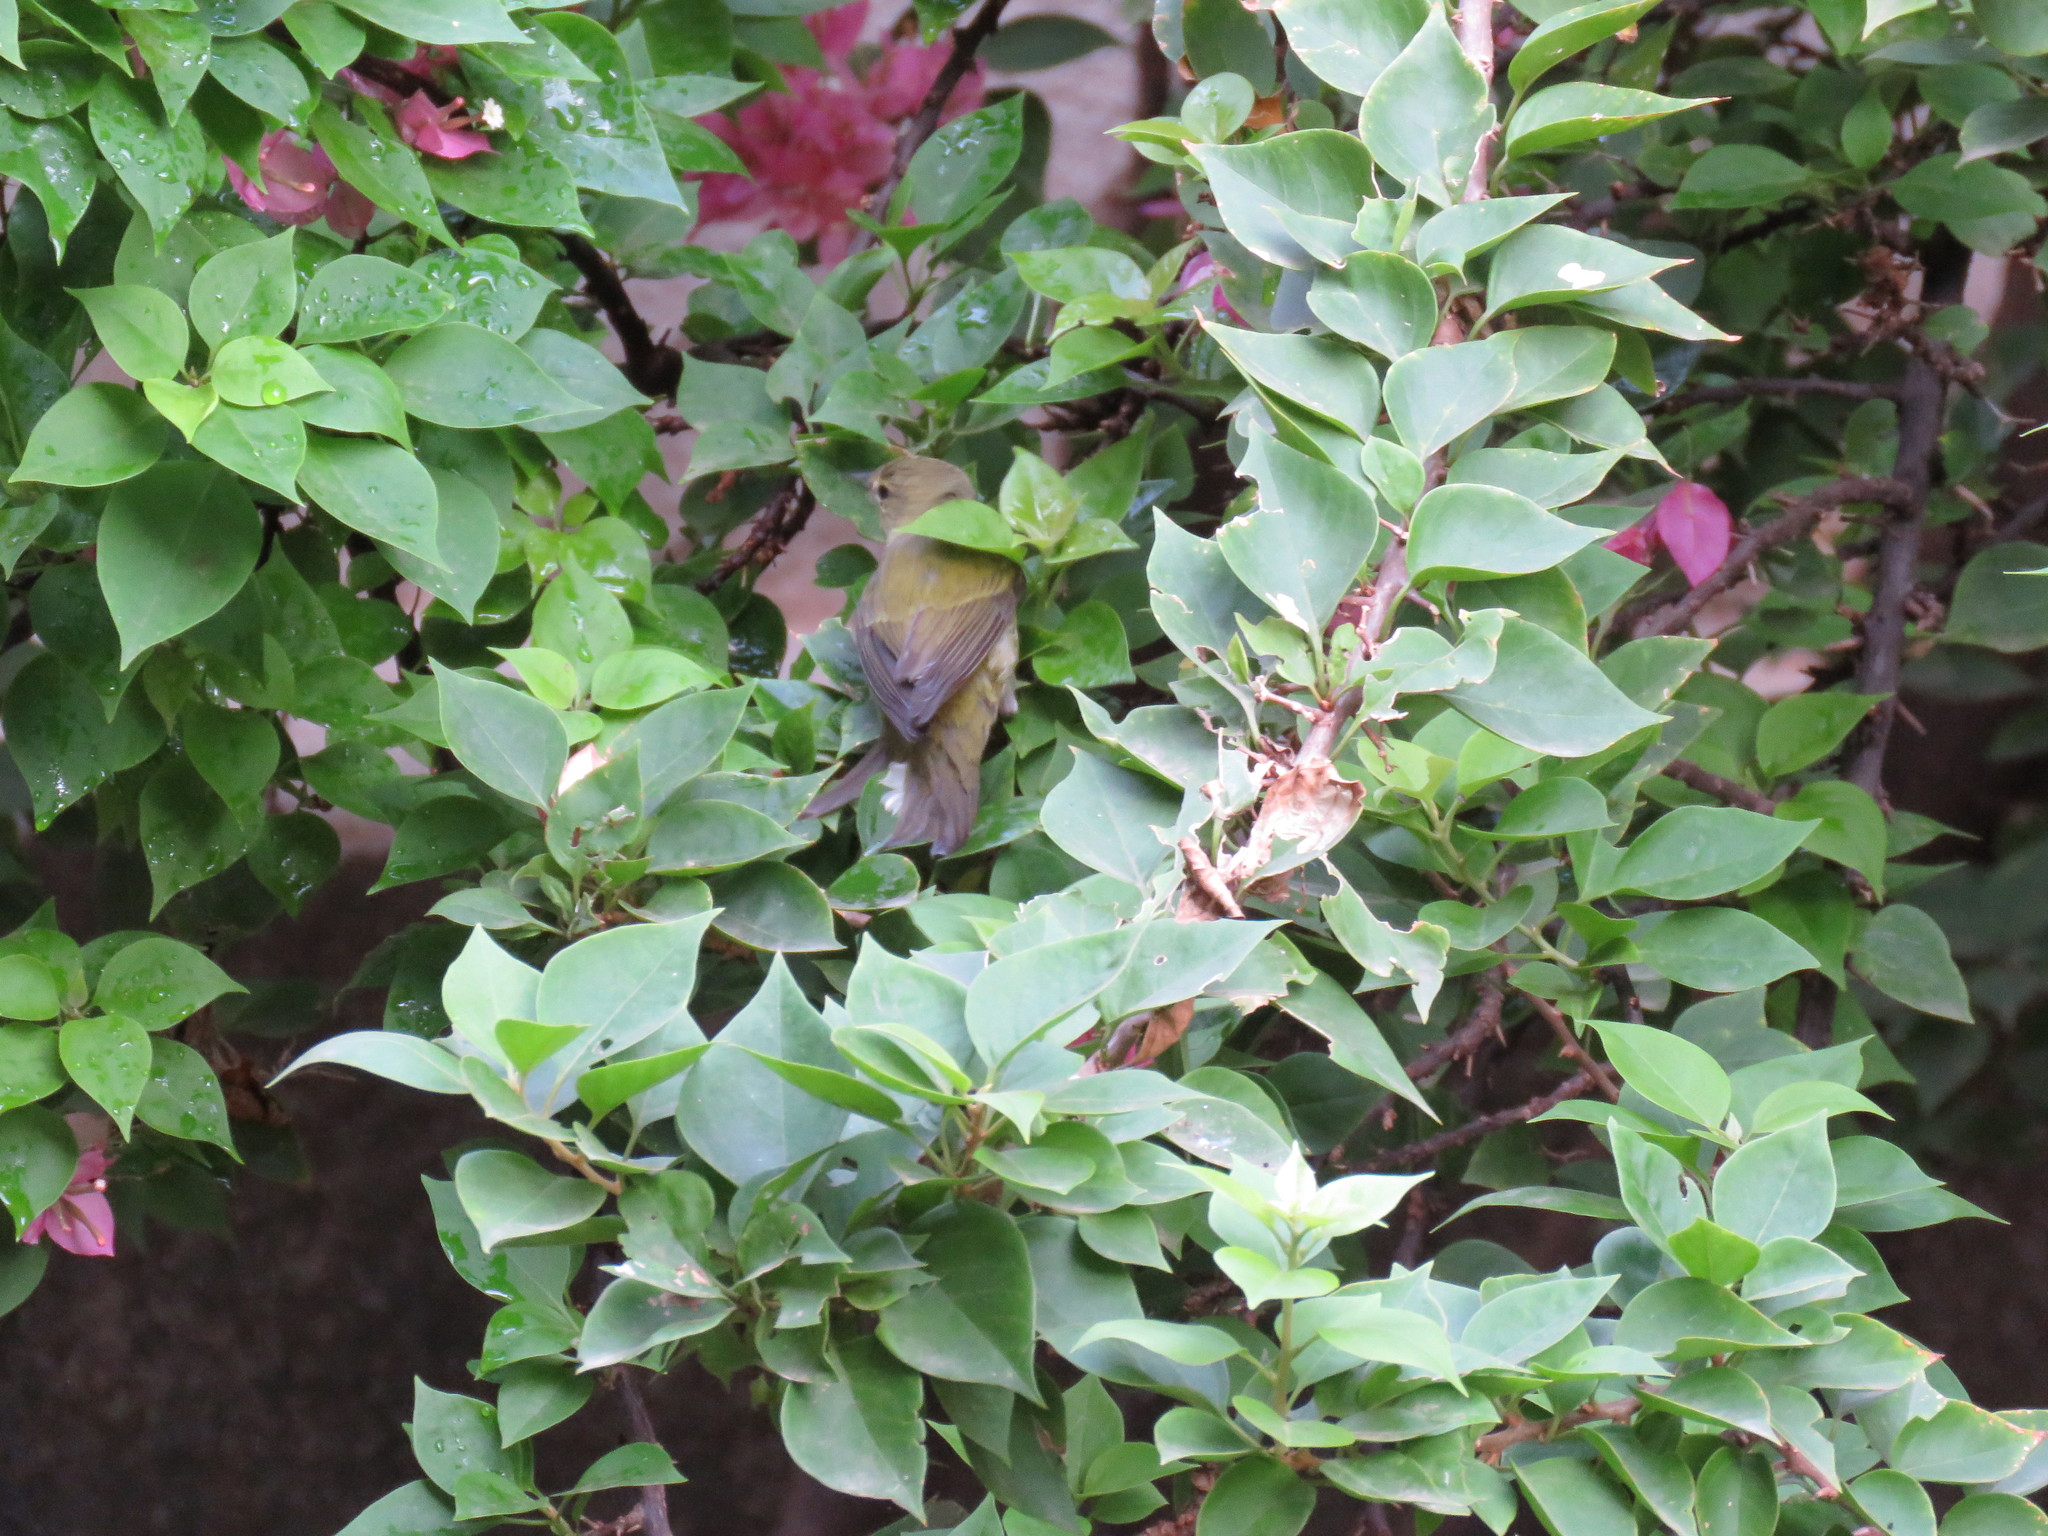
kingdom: Animalia
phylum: Chordata
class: Aves
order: Passeriformes
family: Parulidae
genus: Leiothlypis
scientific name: Leiothlypis peregrina
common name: Tennessee warbler
